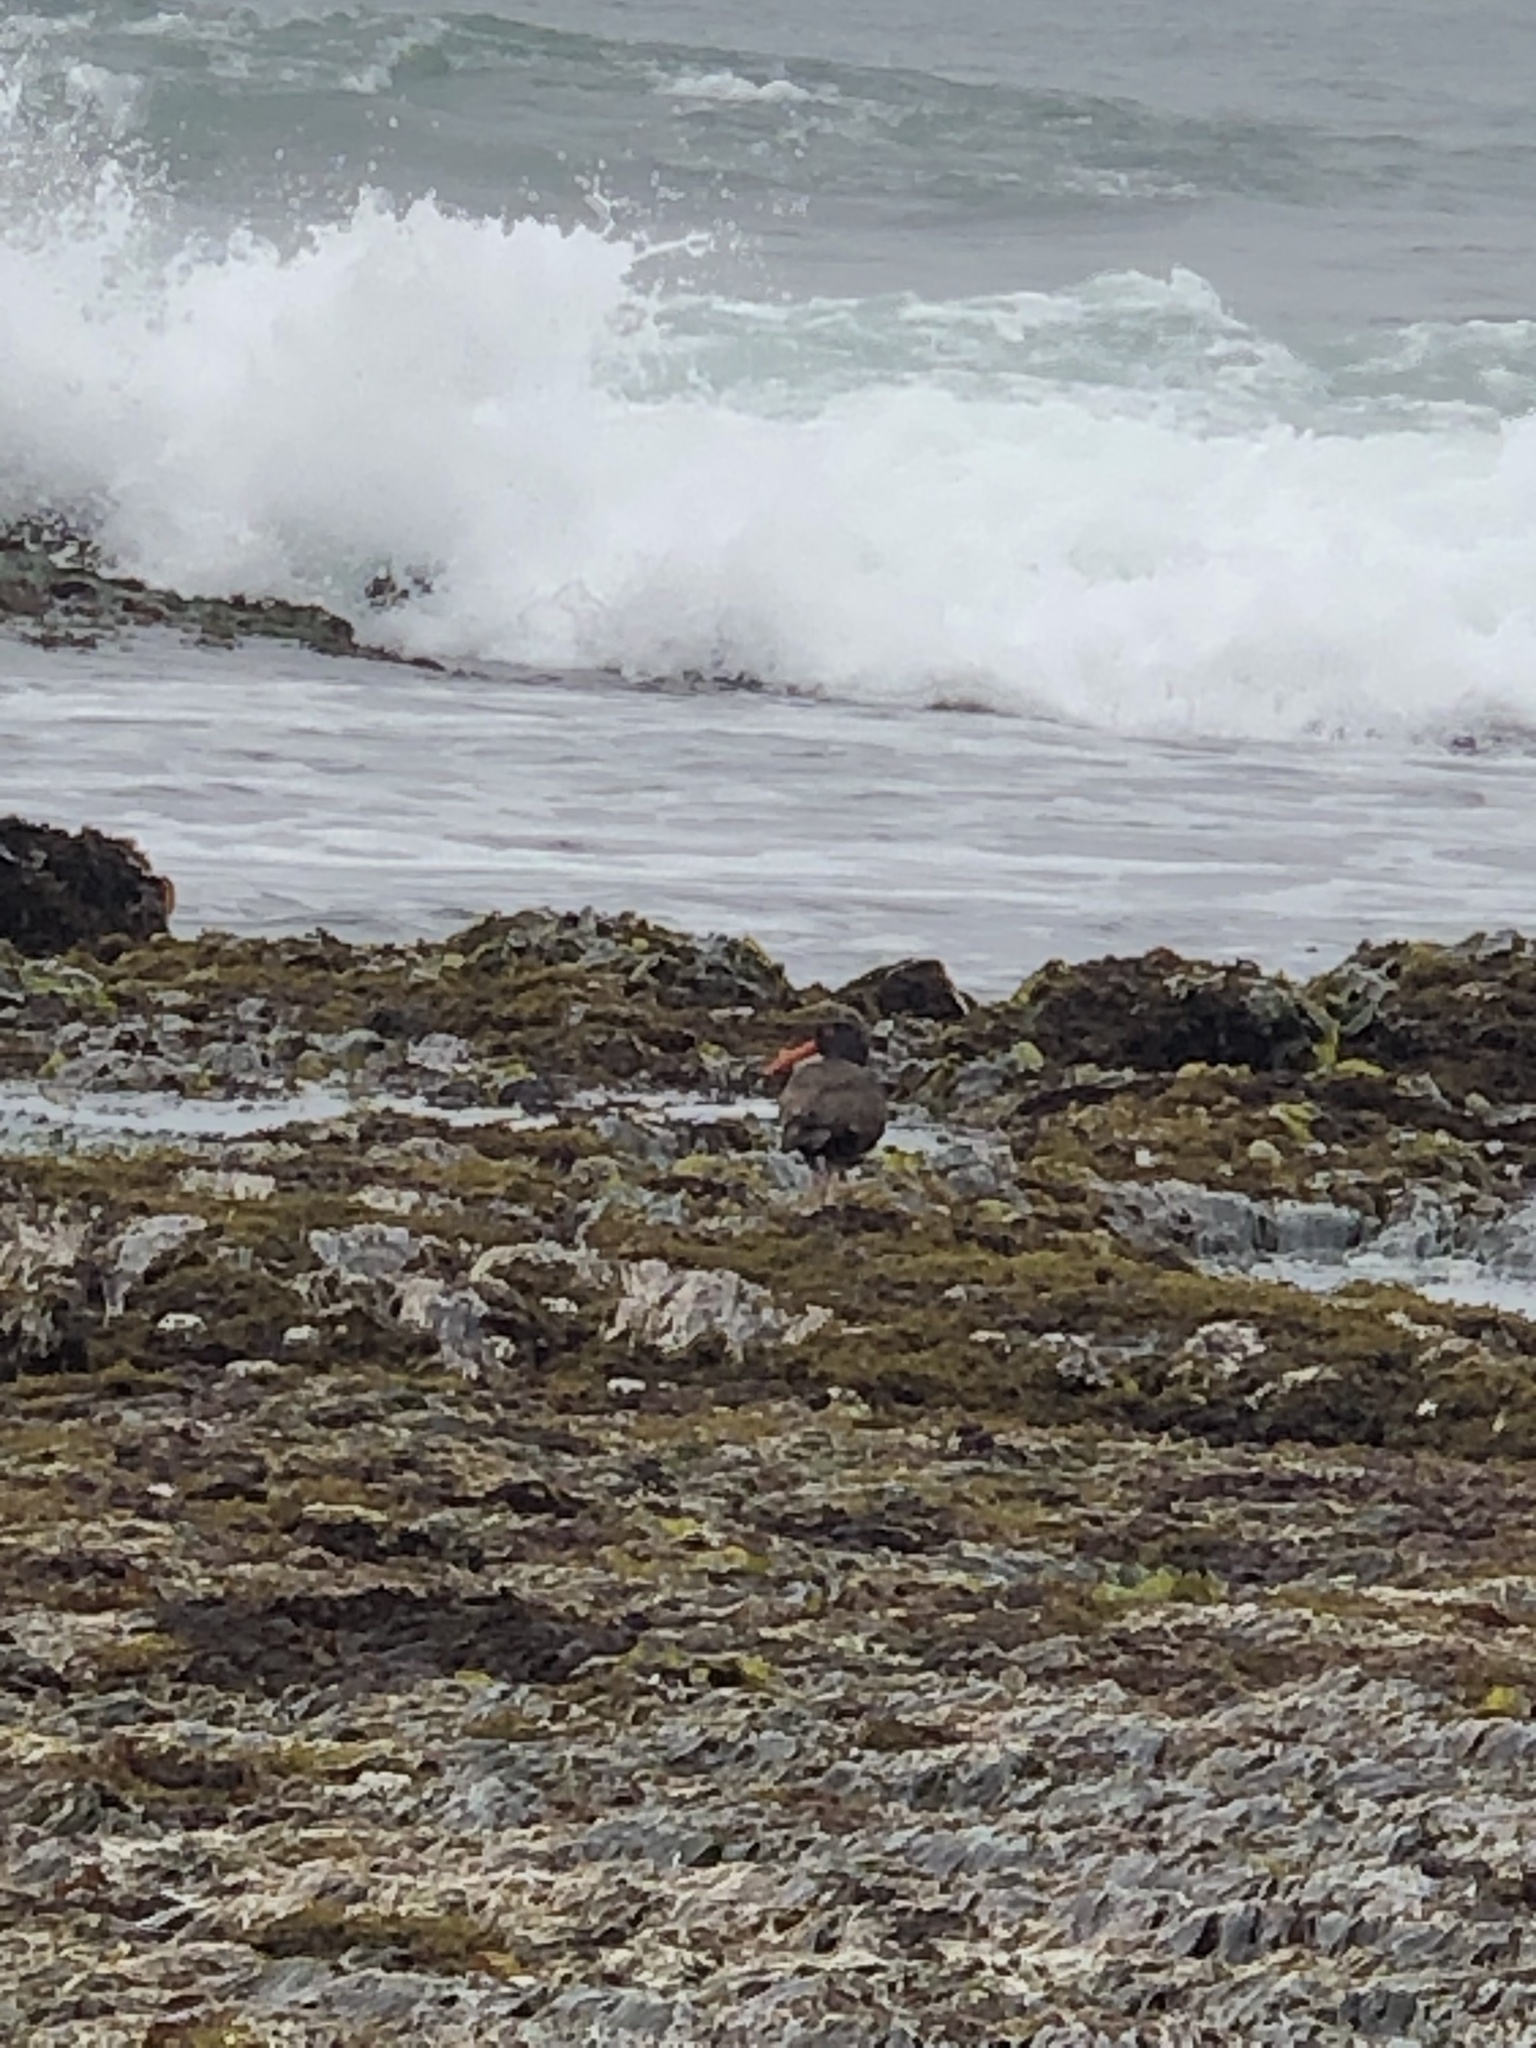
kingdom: Animalia
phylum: Chordata
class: Aves
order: Charadriiformes
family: Haematopodidae
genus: Haematopus
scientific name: Haematopus bachmani
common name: Black oystercatcher
